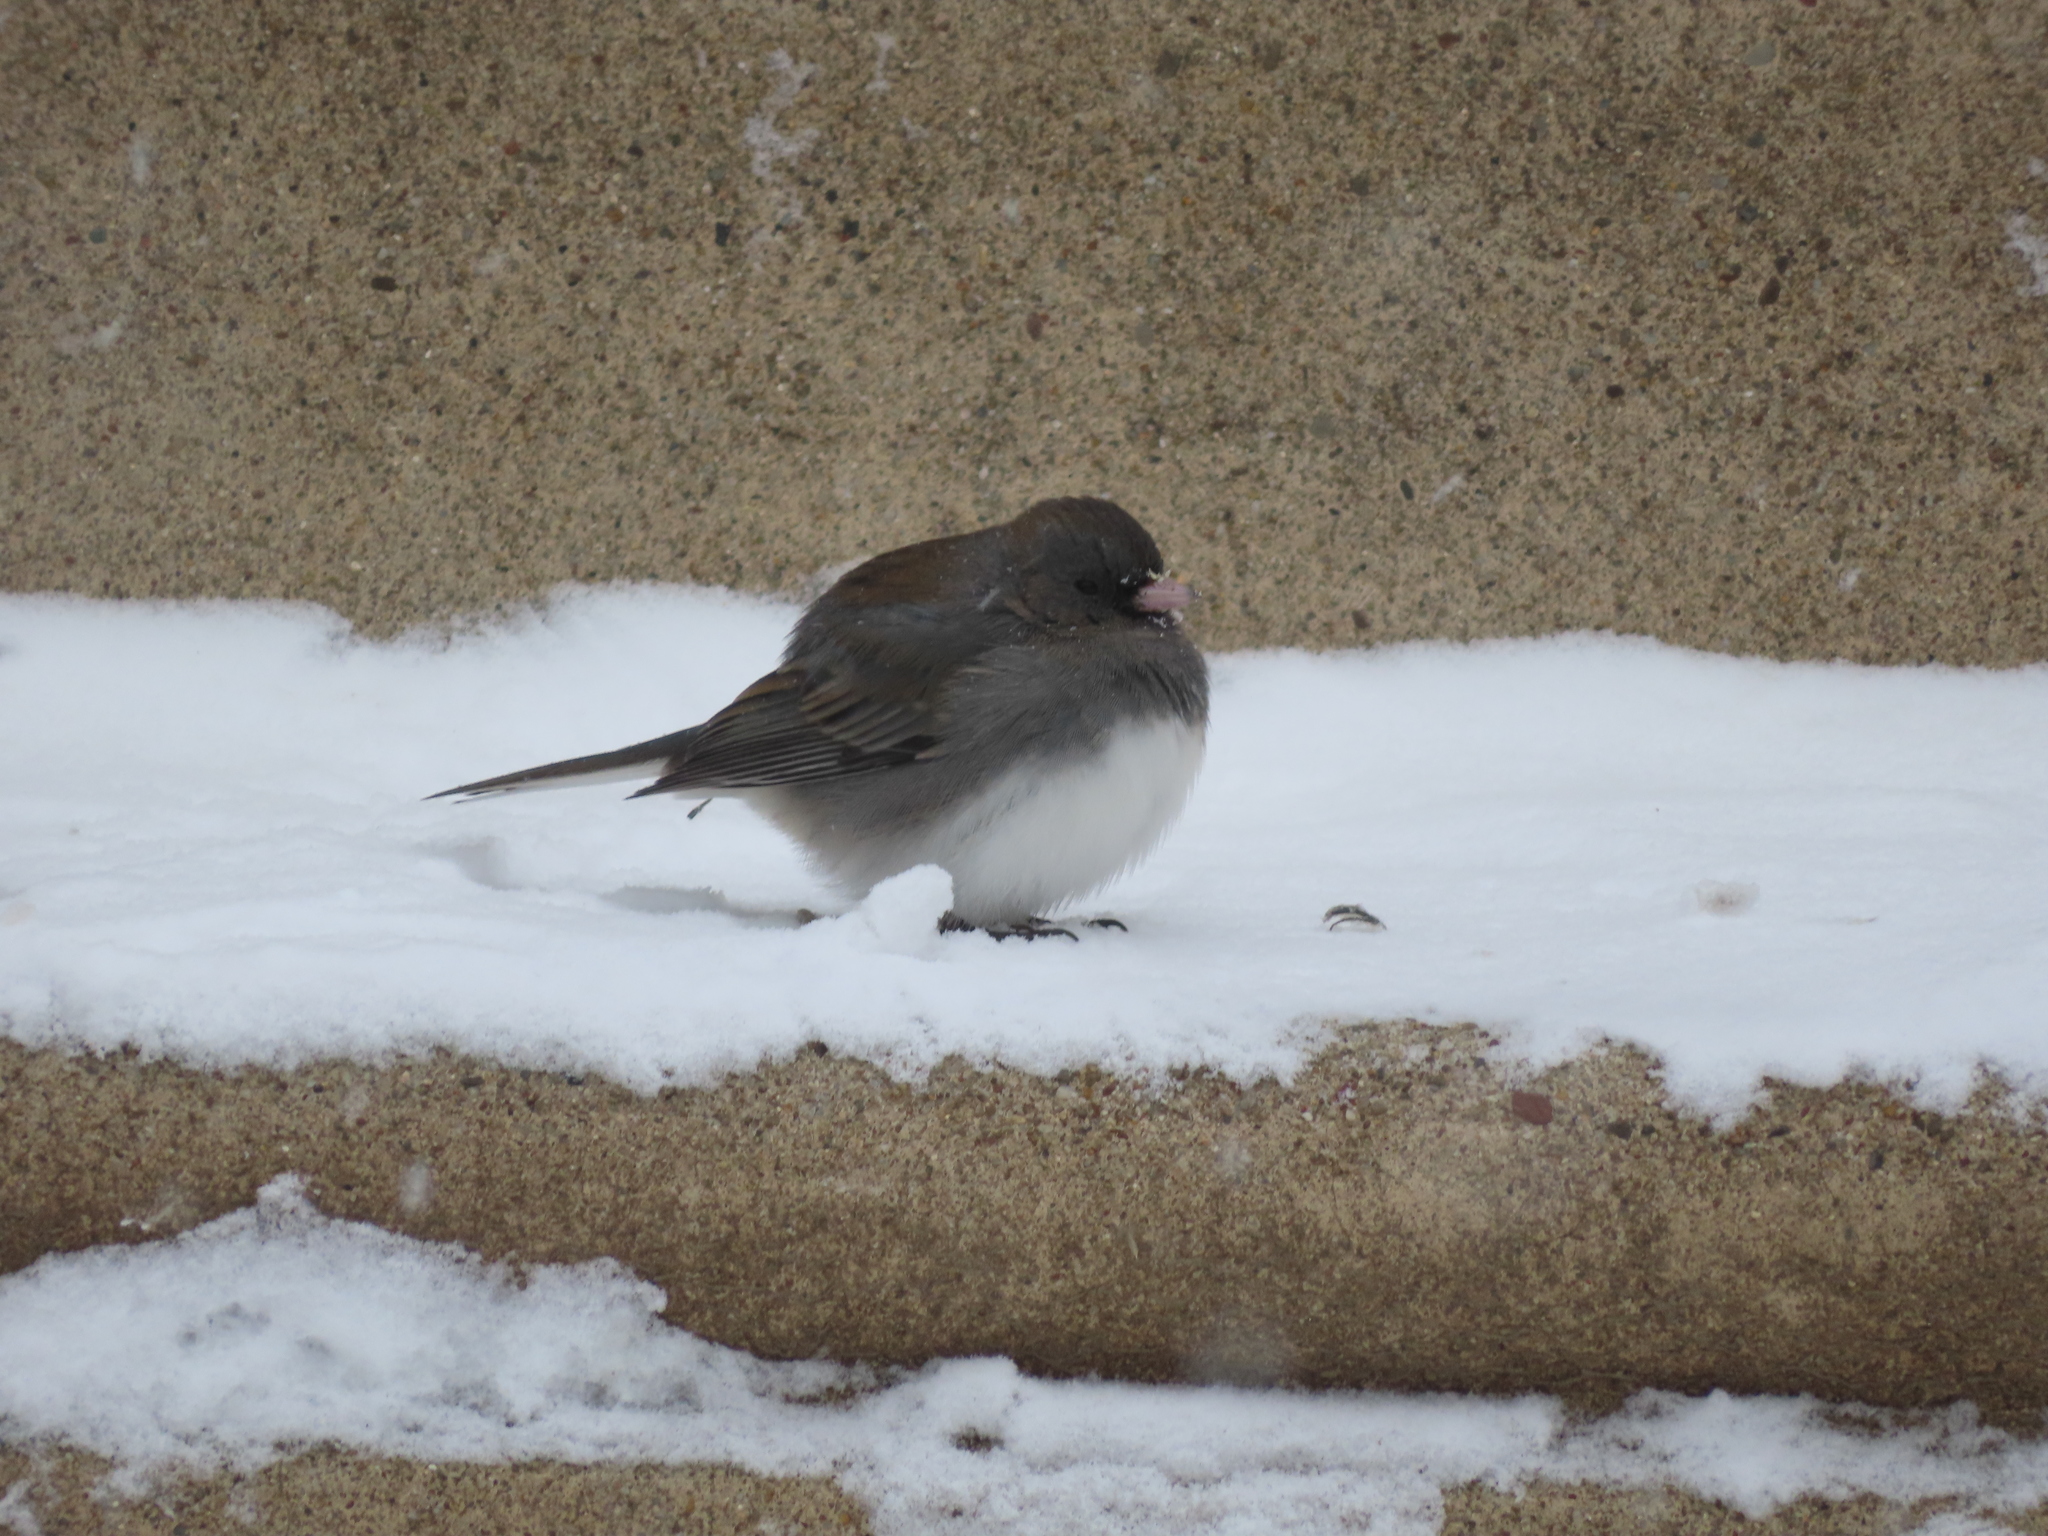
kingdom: Animalia
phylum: Chordata
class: Aves
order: Passeriformes
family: Passerellidae
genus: Junco
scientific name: Junco hyemalis
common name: Dark-eyed junco
